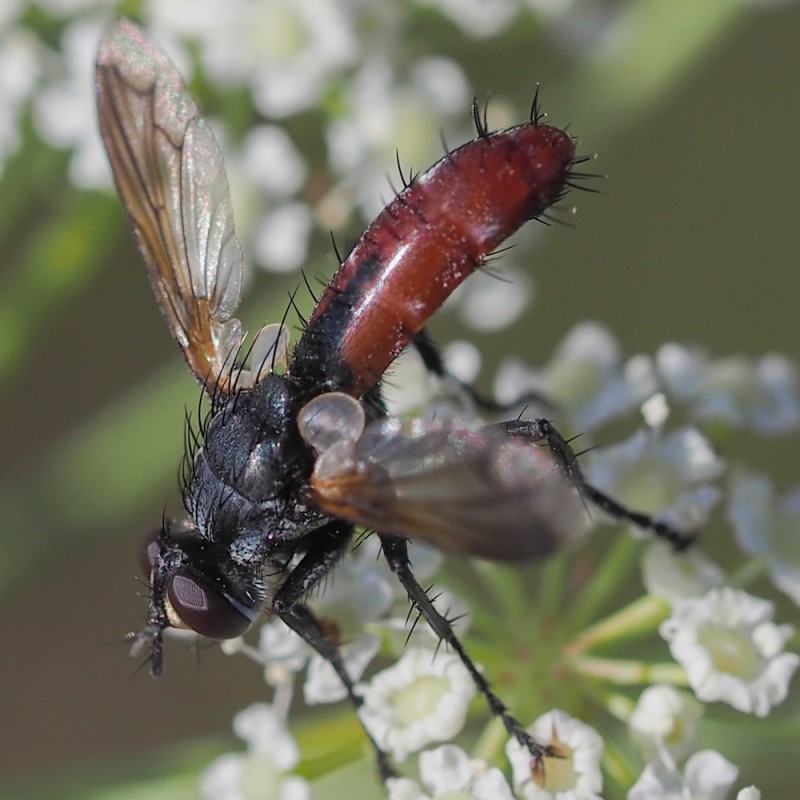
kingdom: Animalia
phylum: Arthropoda
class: Insecta
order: Diptera
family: Tachinidae
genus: Cylindromyia
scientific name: Cylindromyia bicolor
